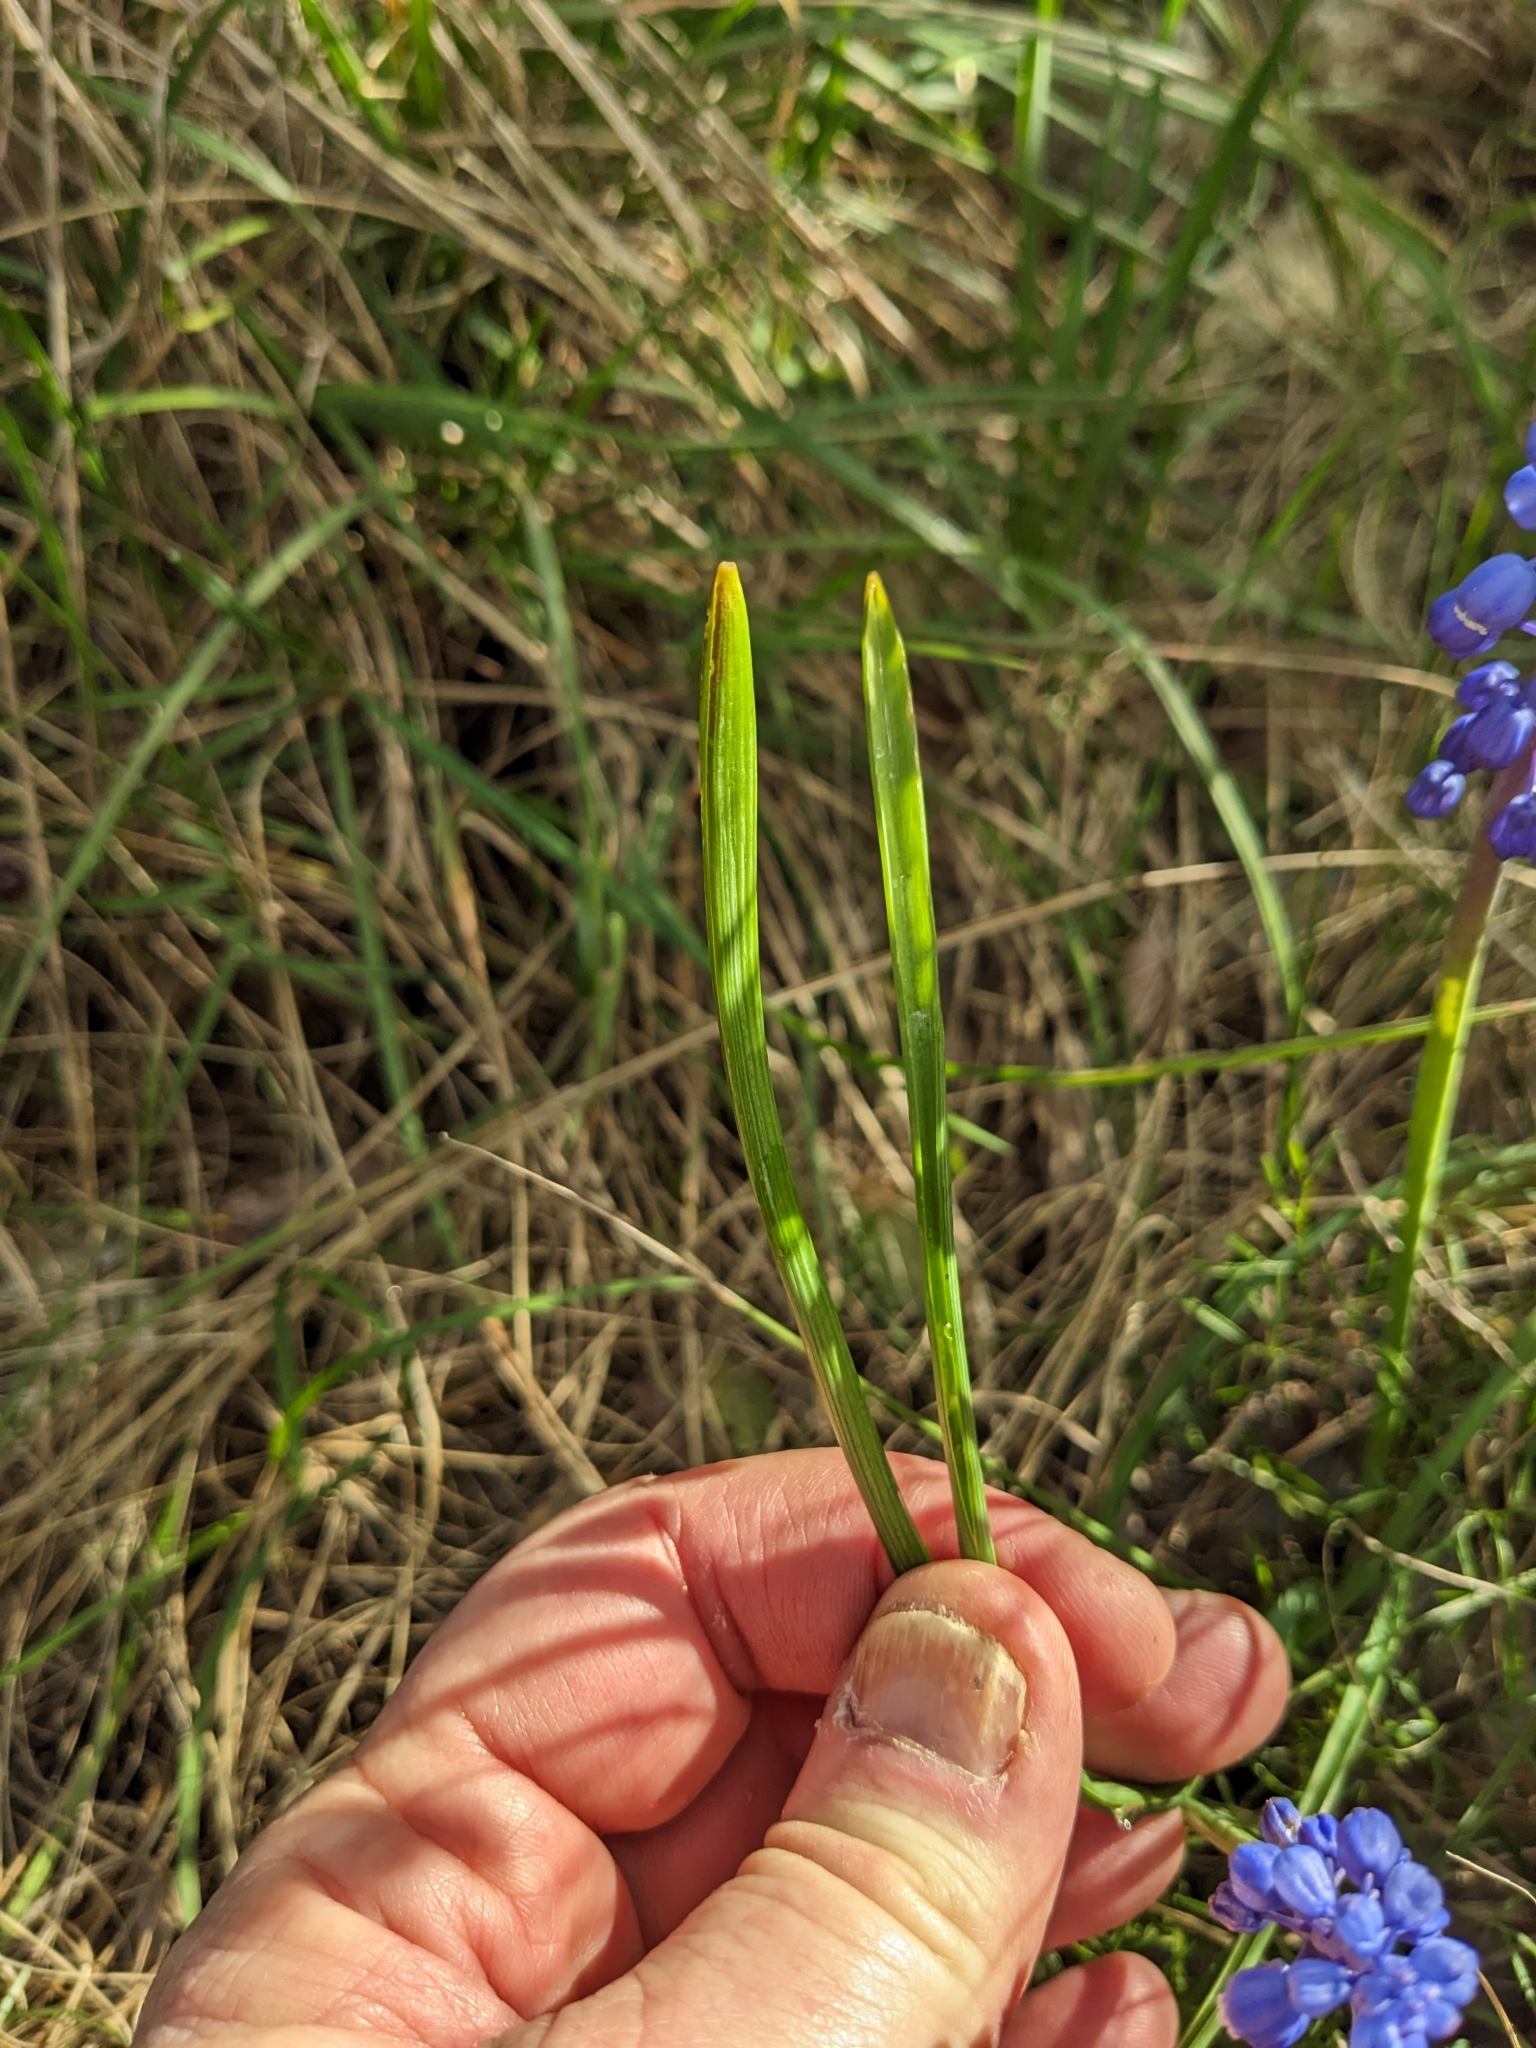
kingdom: Plantae
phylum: Tracheophyta
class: Liliopsida
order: Asparagales
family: Asparagaceae
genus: Muscari
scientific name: Muscari botryoides
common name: Compact grape-hyacinth
